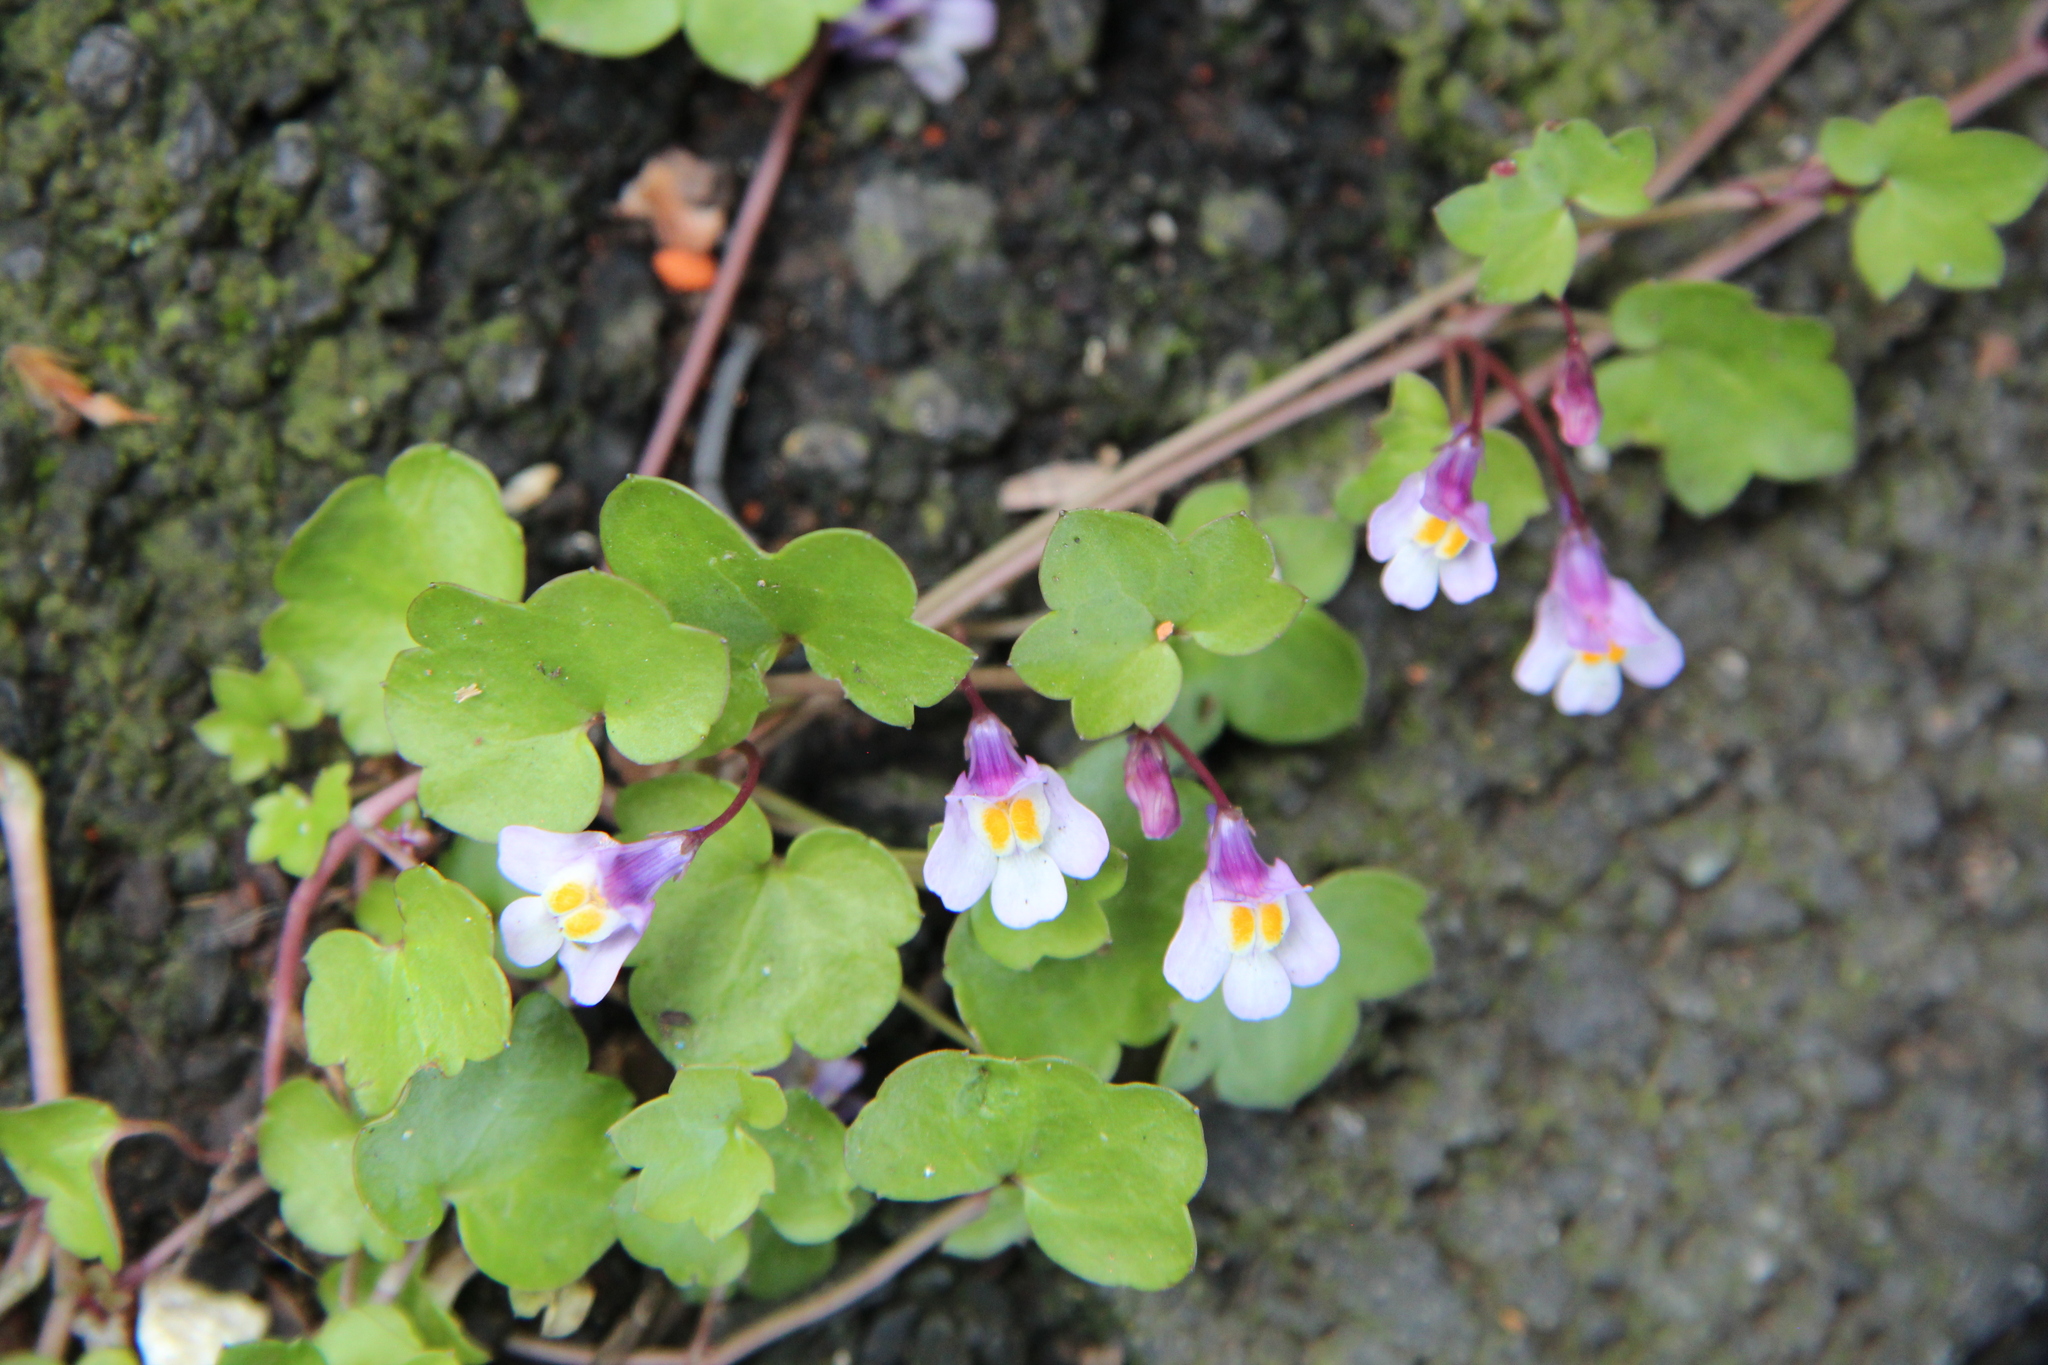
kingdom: Plantae
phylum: Tracheophyta
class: Magnoliopsida
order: Lamiales
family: Plantaginaceae
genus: Cymbalaria
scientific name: Cymbalaria muralis
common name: Ivy-leaved toadflax
